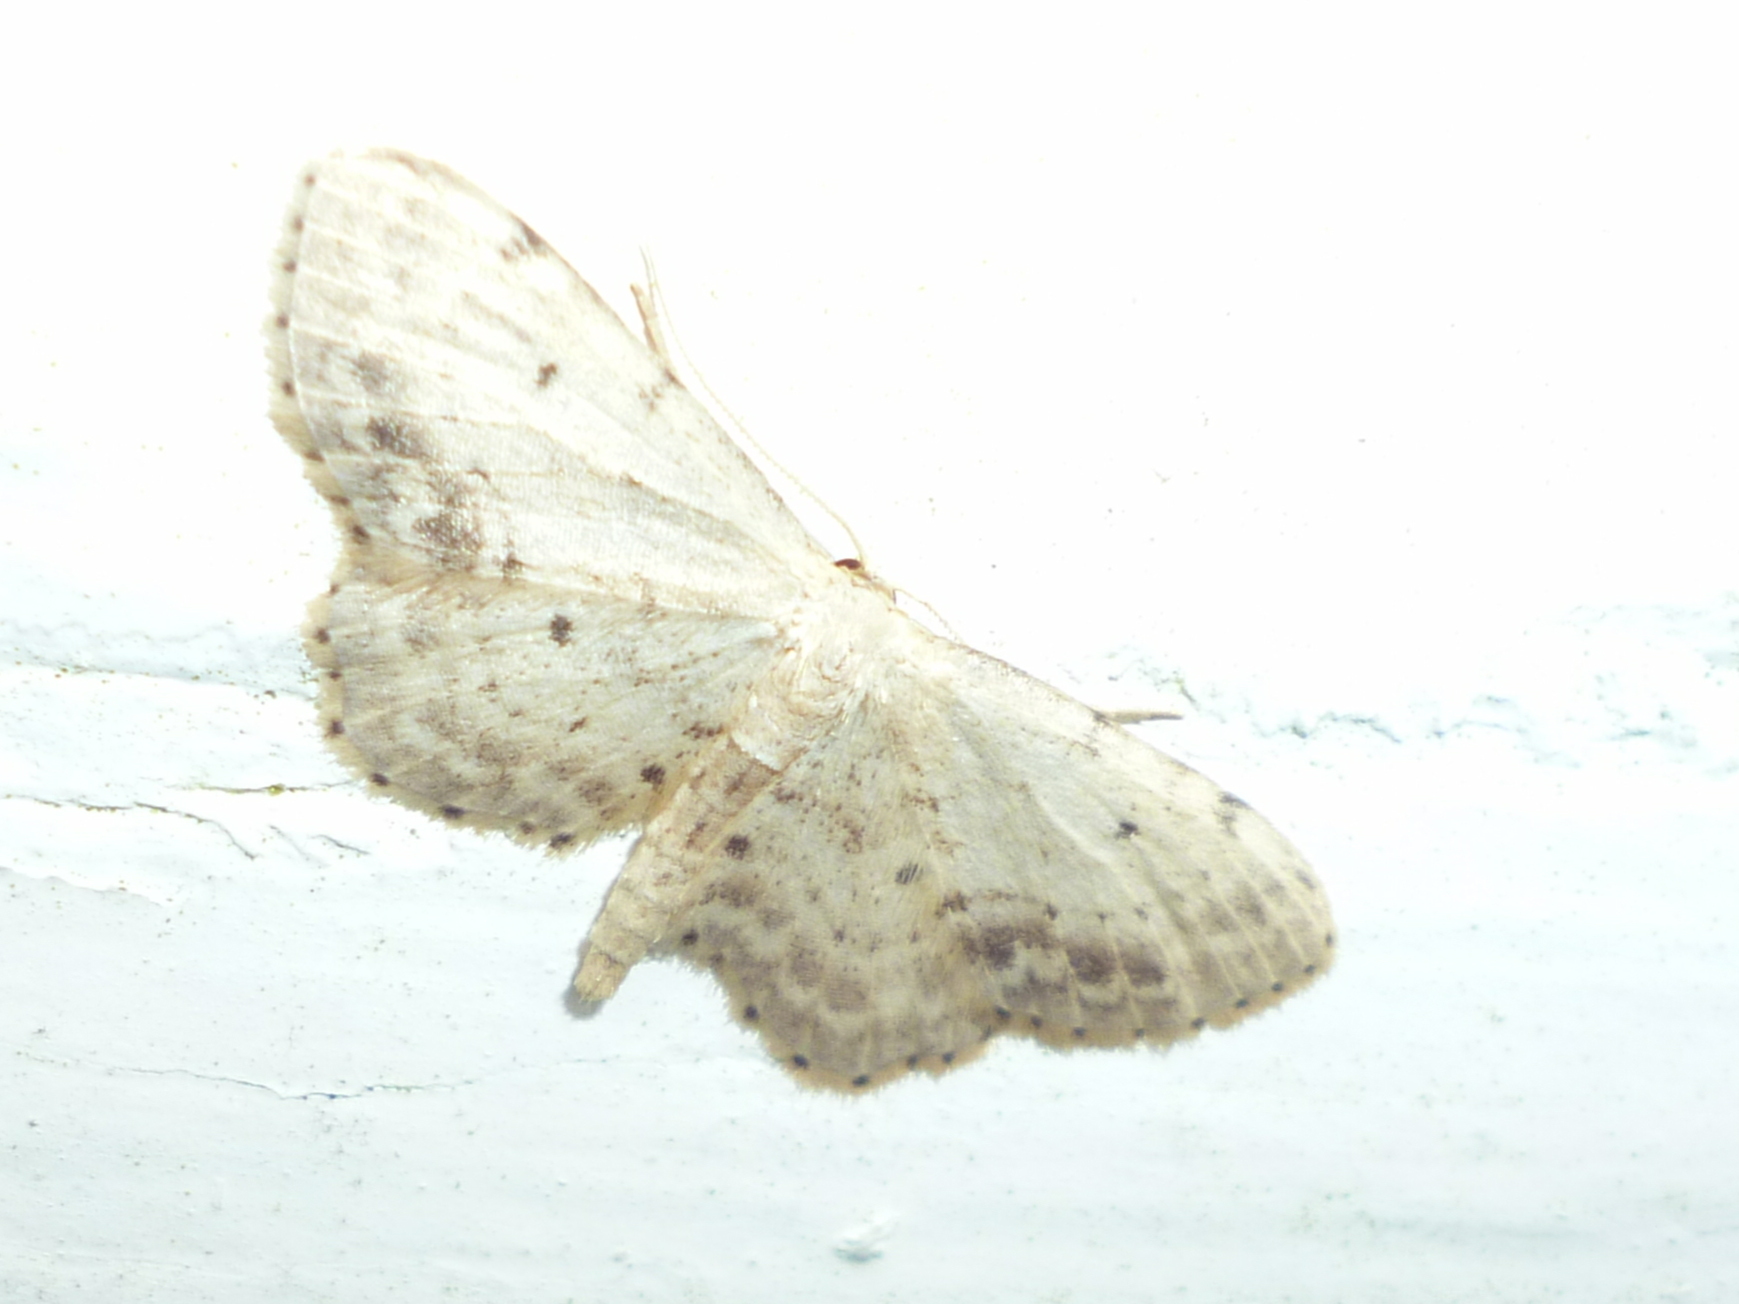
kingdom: Animalia
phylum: Arthropoda
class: Insecta
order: Lepidoptera
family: Geometridae
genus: Idaea
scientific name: Idaea dimidiata
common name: Single-dotted wave
